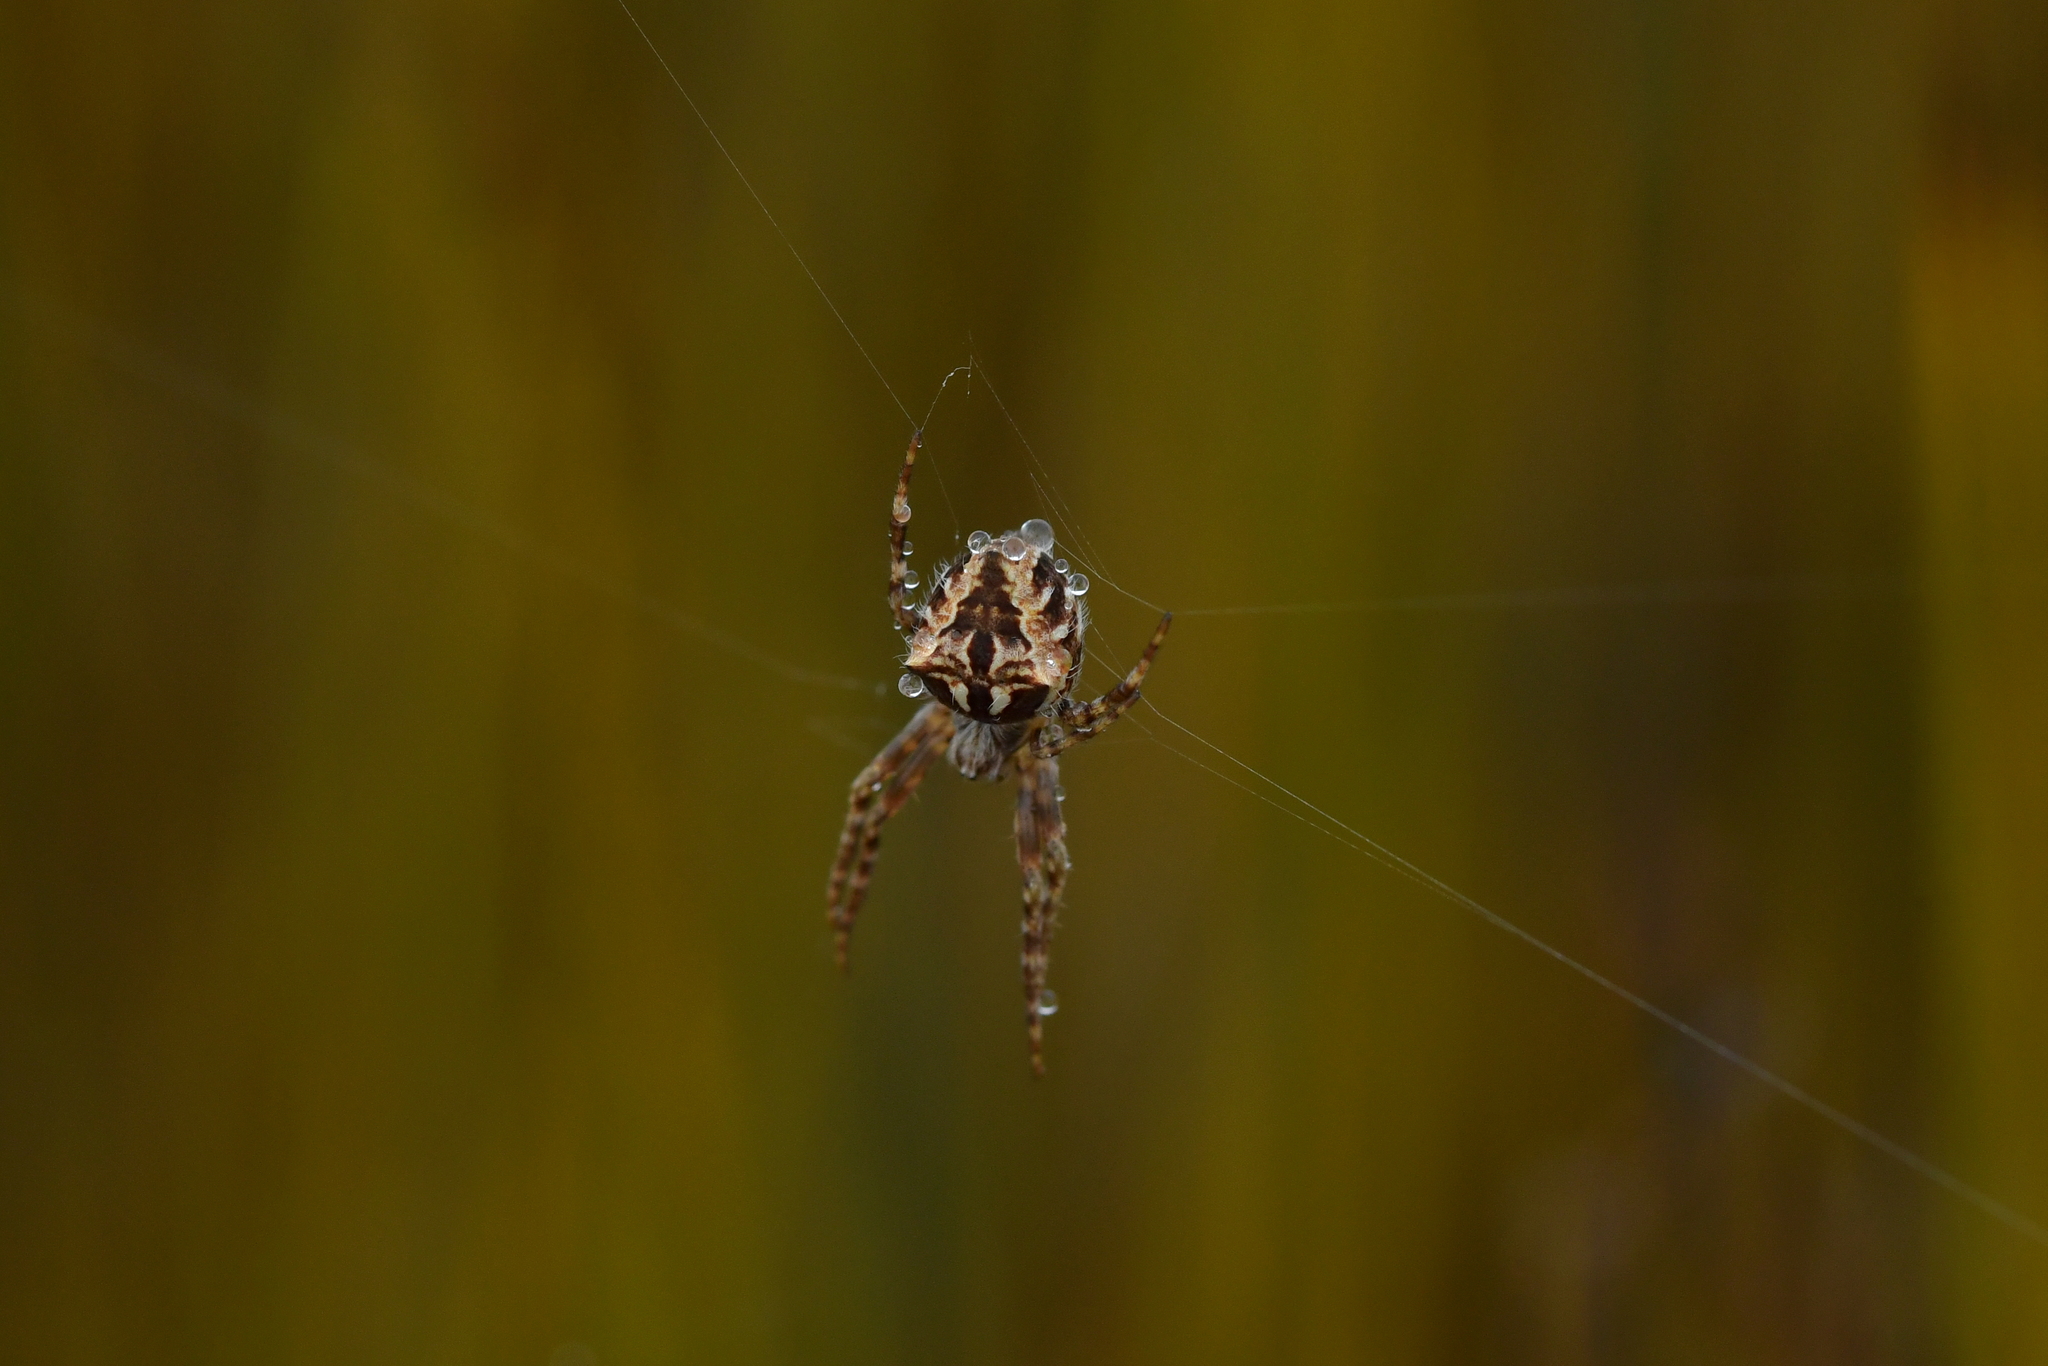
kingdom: Animalia
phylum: Arthropoda
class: Arachnida
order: Araneae
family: Araneidae
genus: Backobourkia
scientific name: Backobourkia brouni
